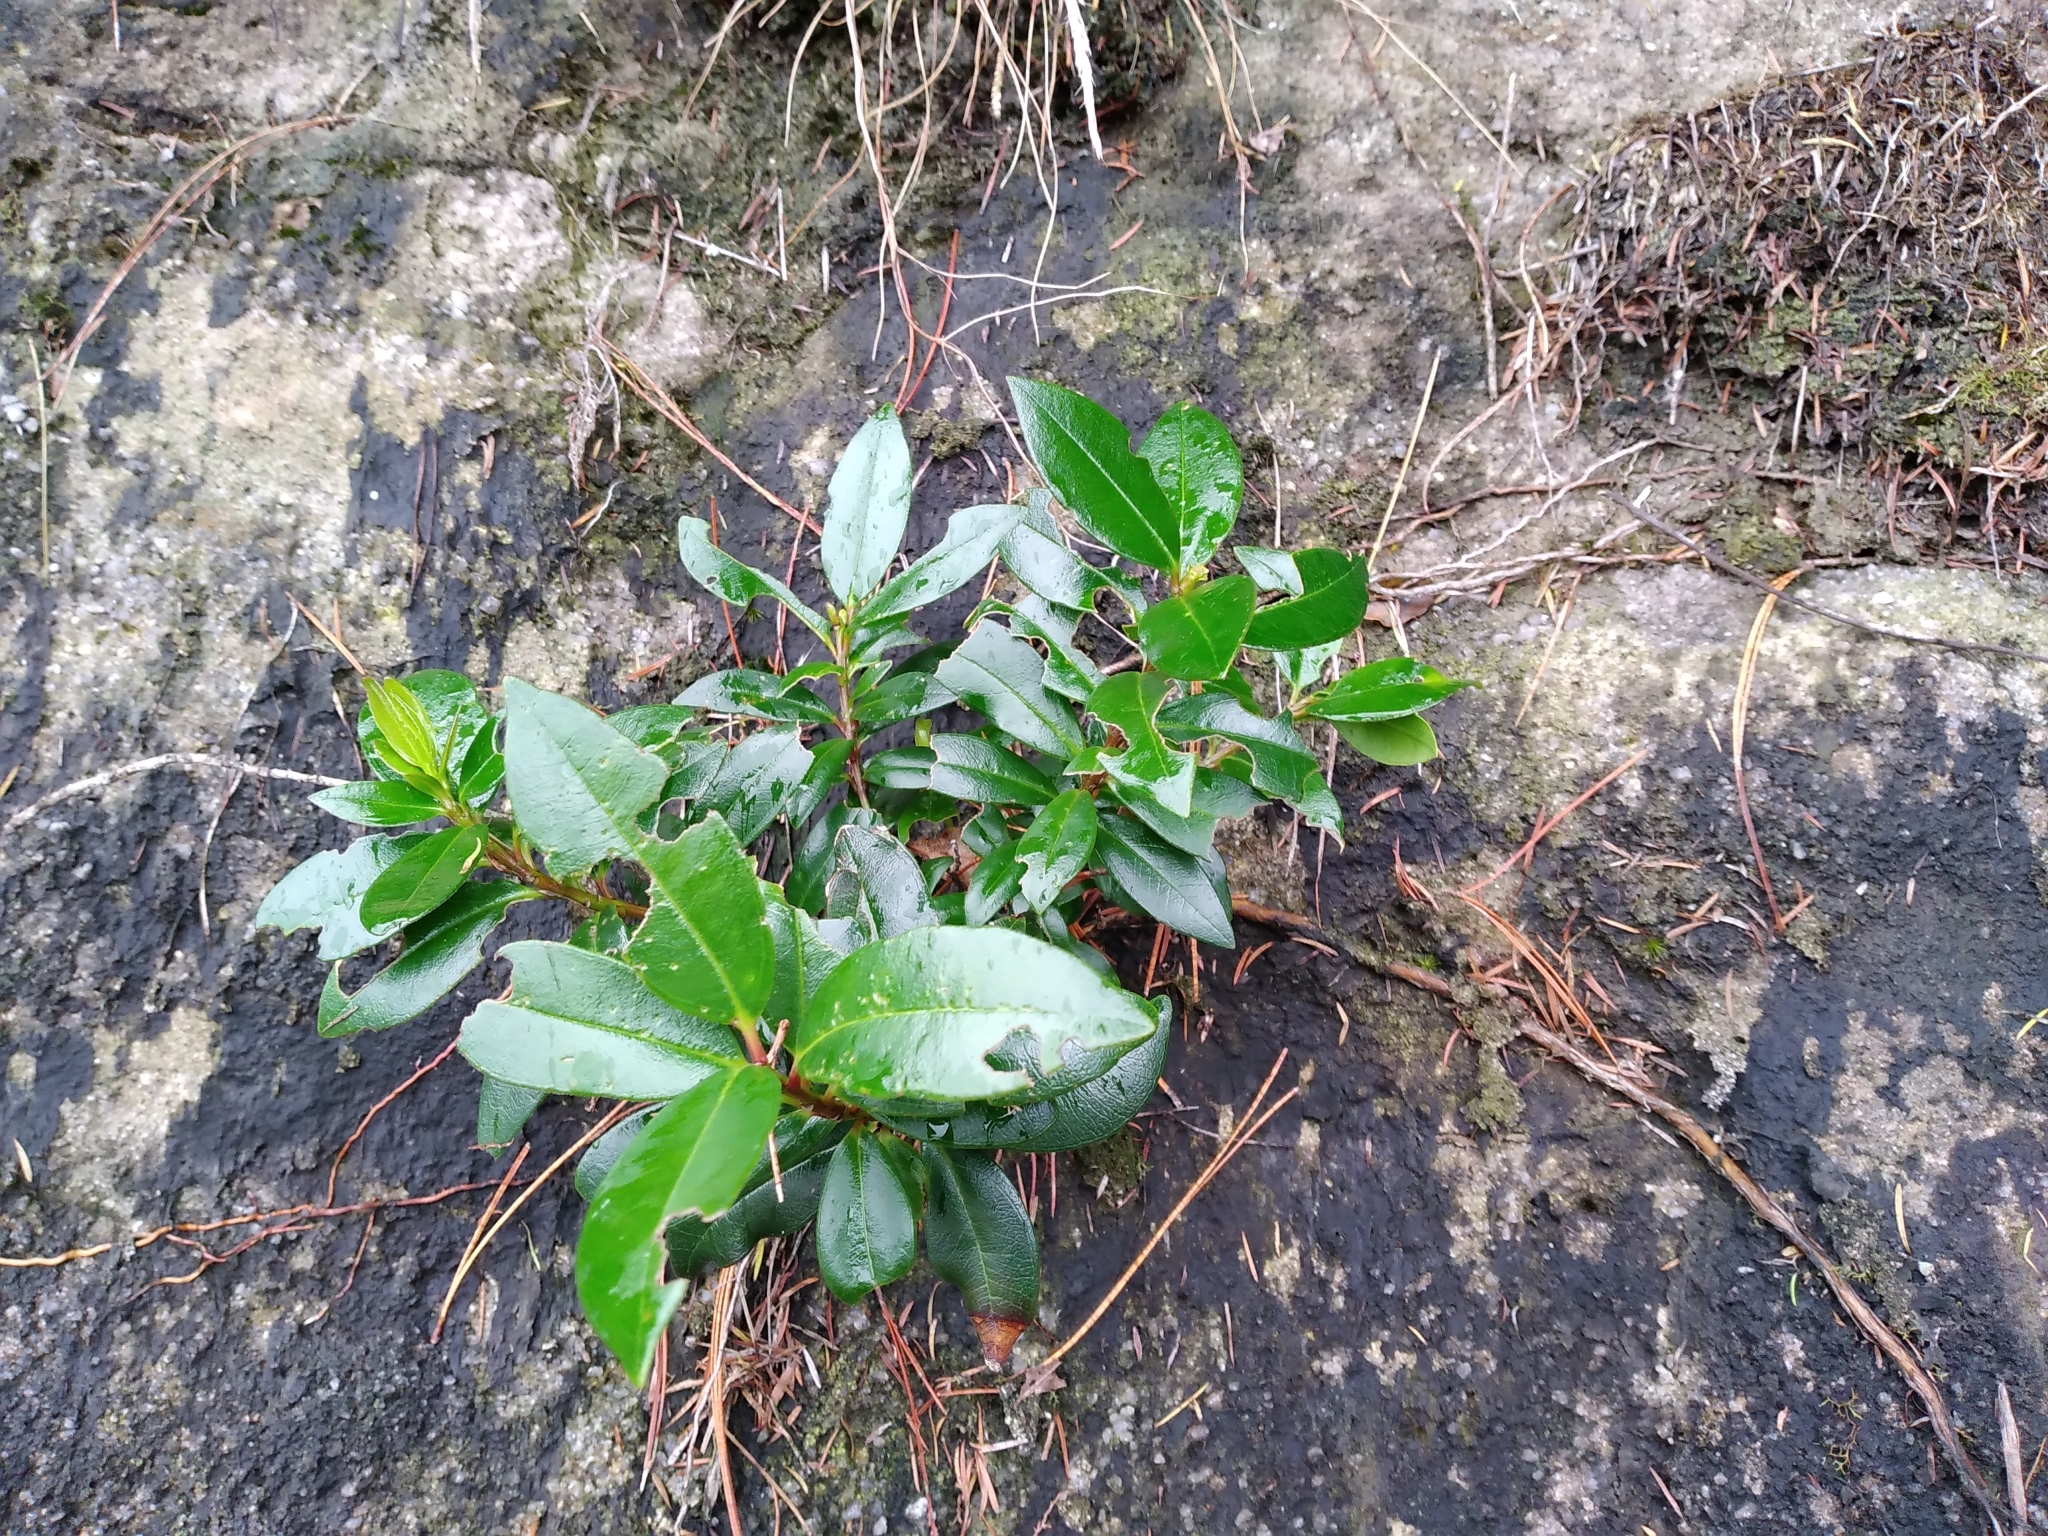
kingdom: Plantae
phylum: Tracheophyta
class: Magnoliopsida
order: Myrtales
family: Myrtaceae
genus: Metrosideros
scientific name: Metrosideros excelsa
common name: New zealand christmastree
